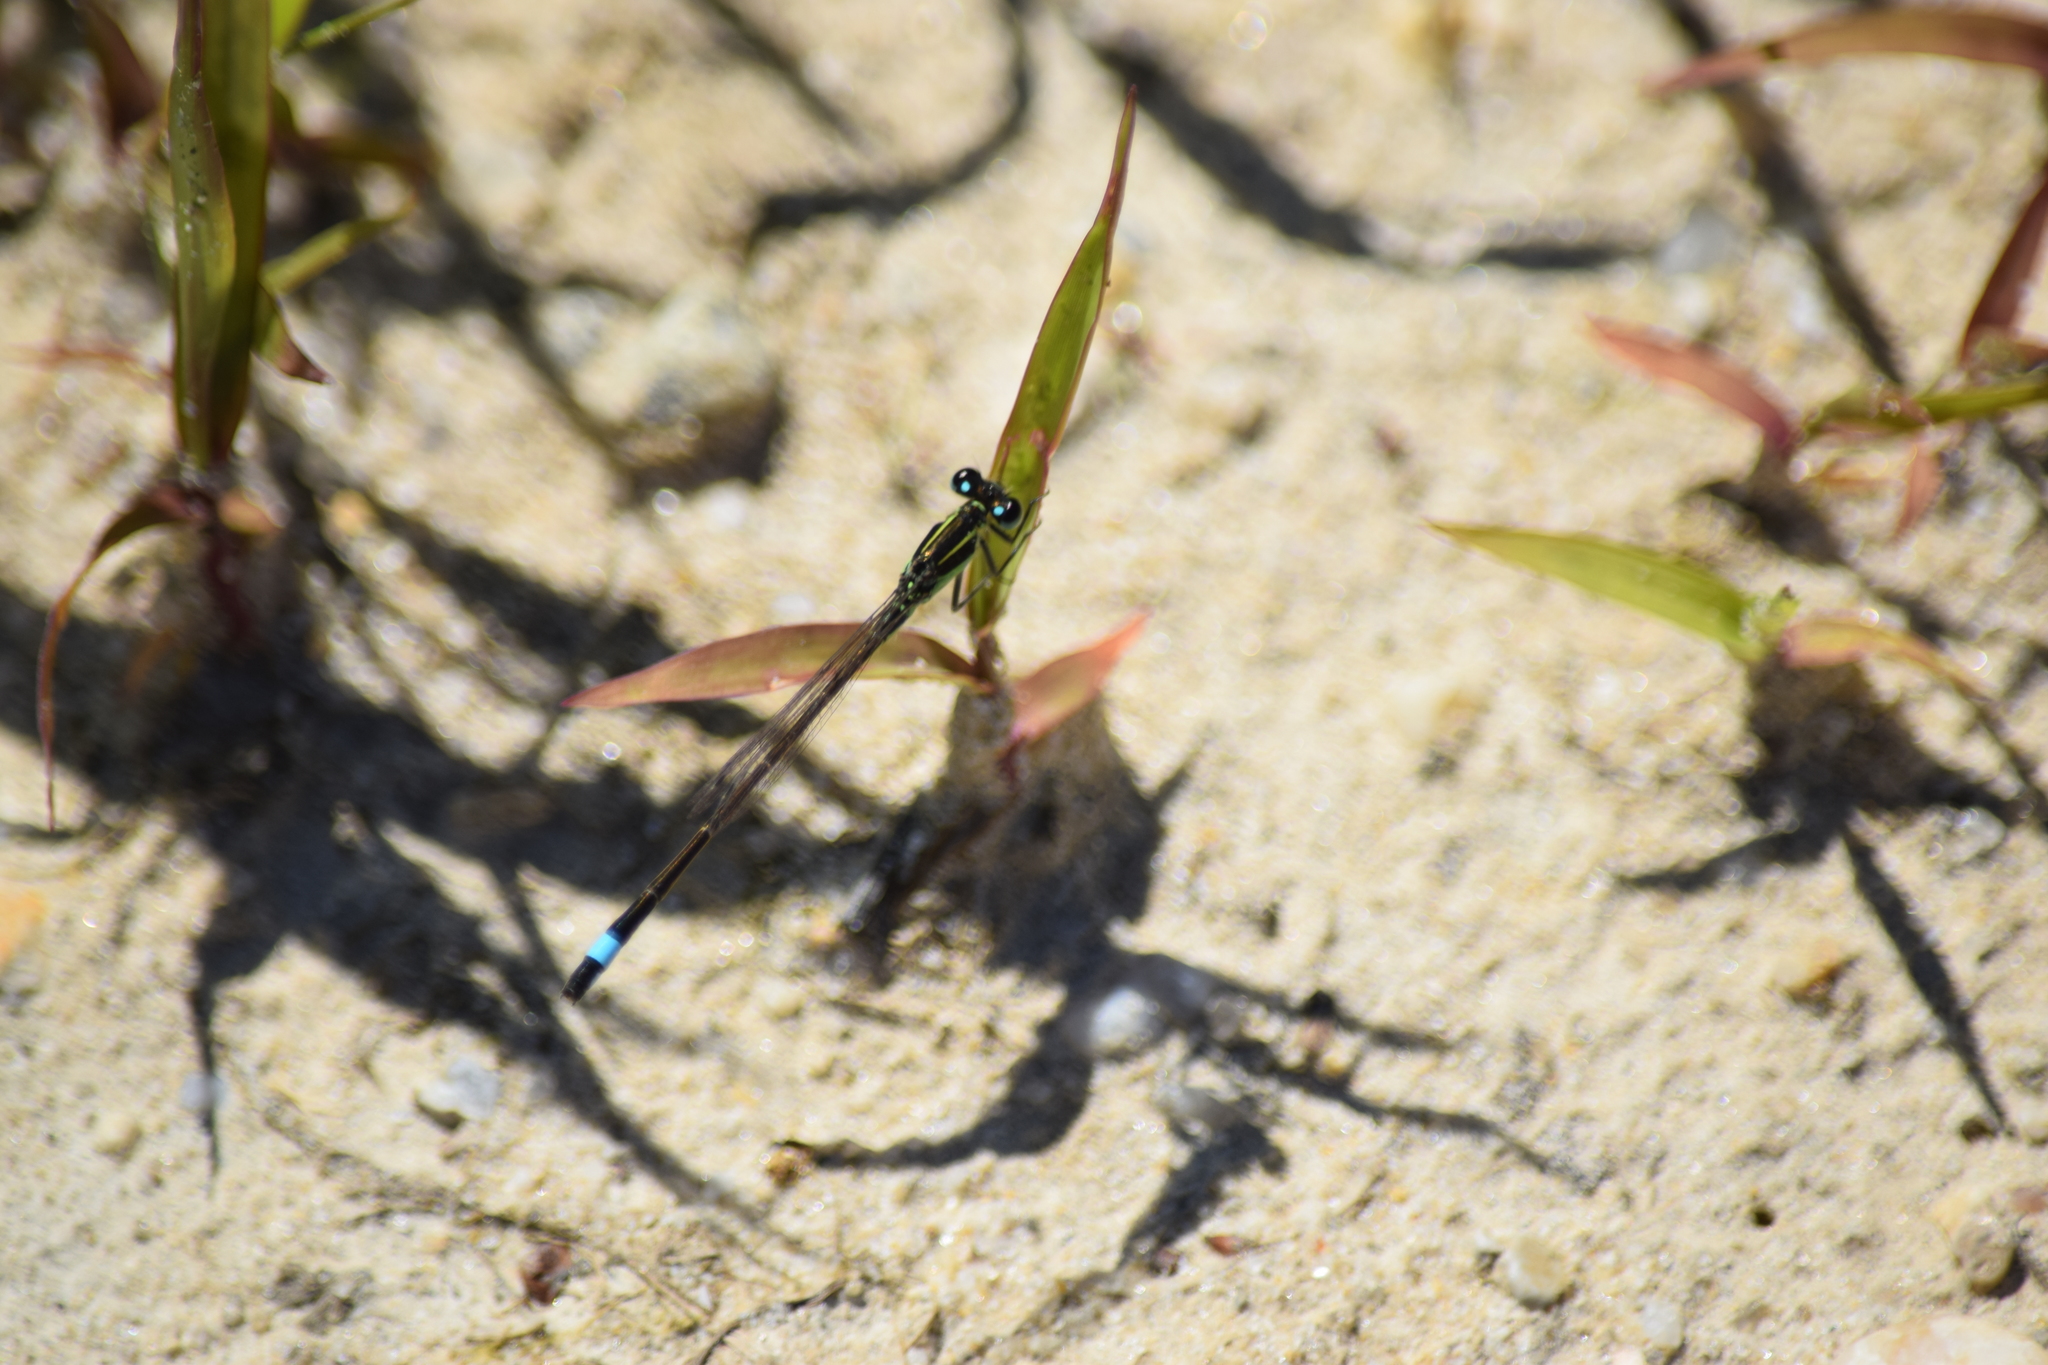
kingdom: Animalia
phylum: Arthropoda
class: Insecta
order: Odonata
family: Coenagrionidae
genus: Ischnura
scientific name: Ischnura ramburii
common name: Rambur's forktail
